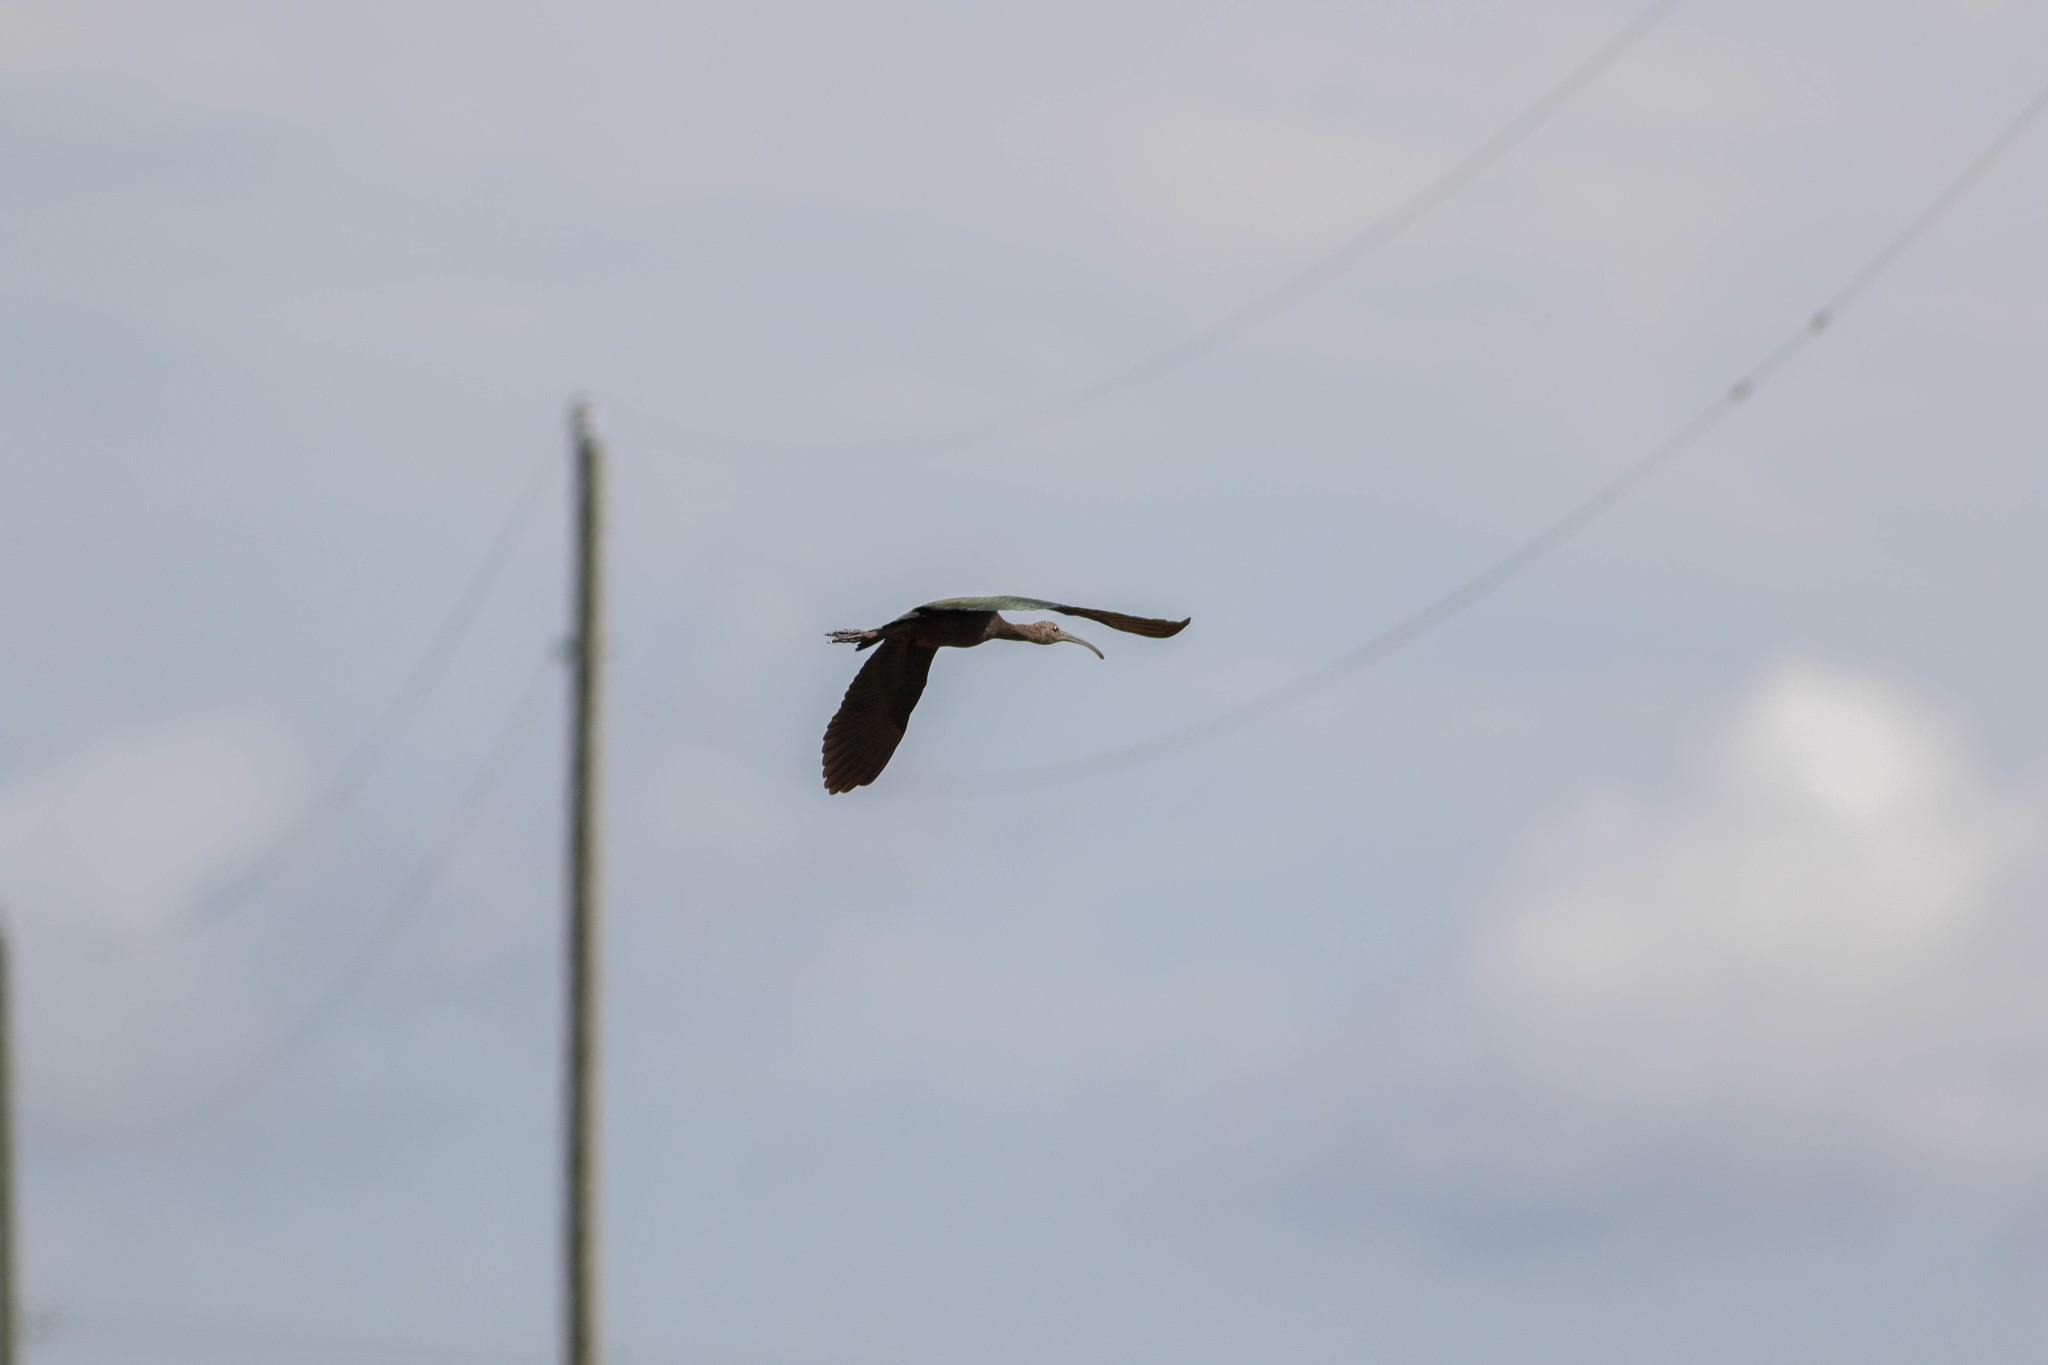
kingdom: Animalia
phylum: Chordata
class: Aves
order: Pelecaniformes
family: Threskiornithidae
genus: Plegadis
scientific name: Plegadis
